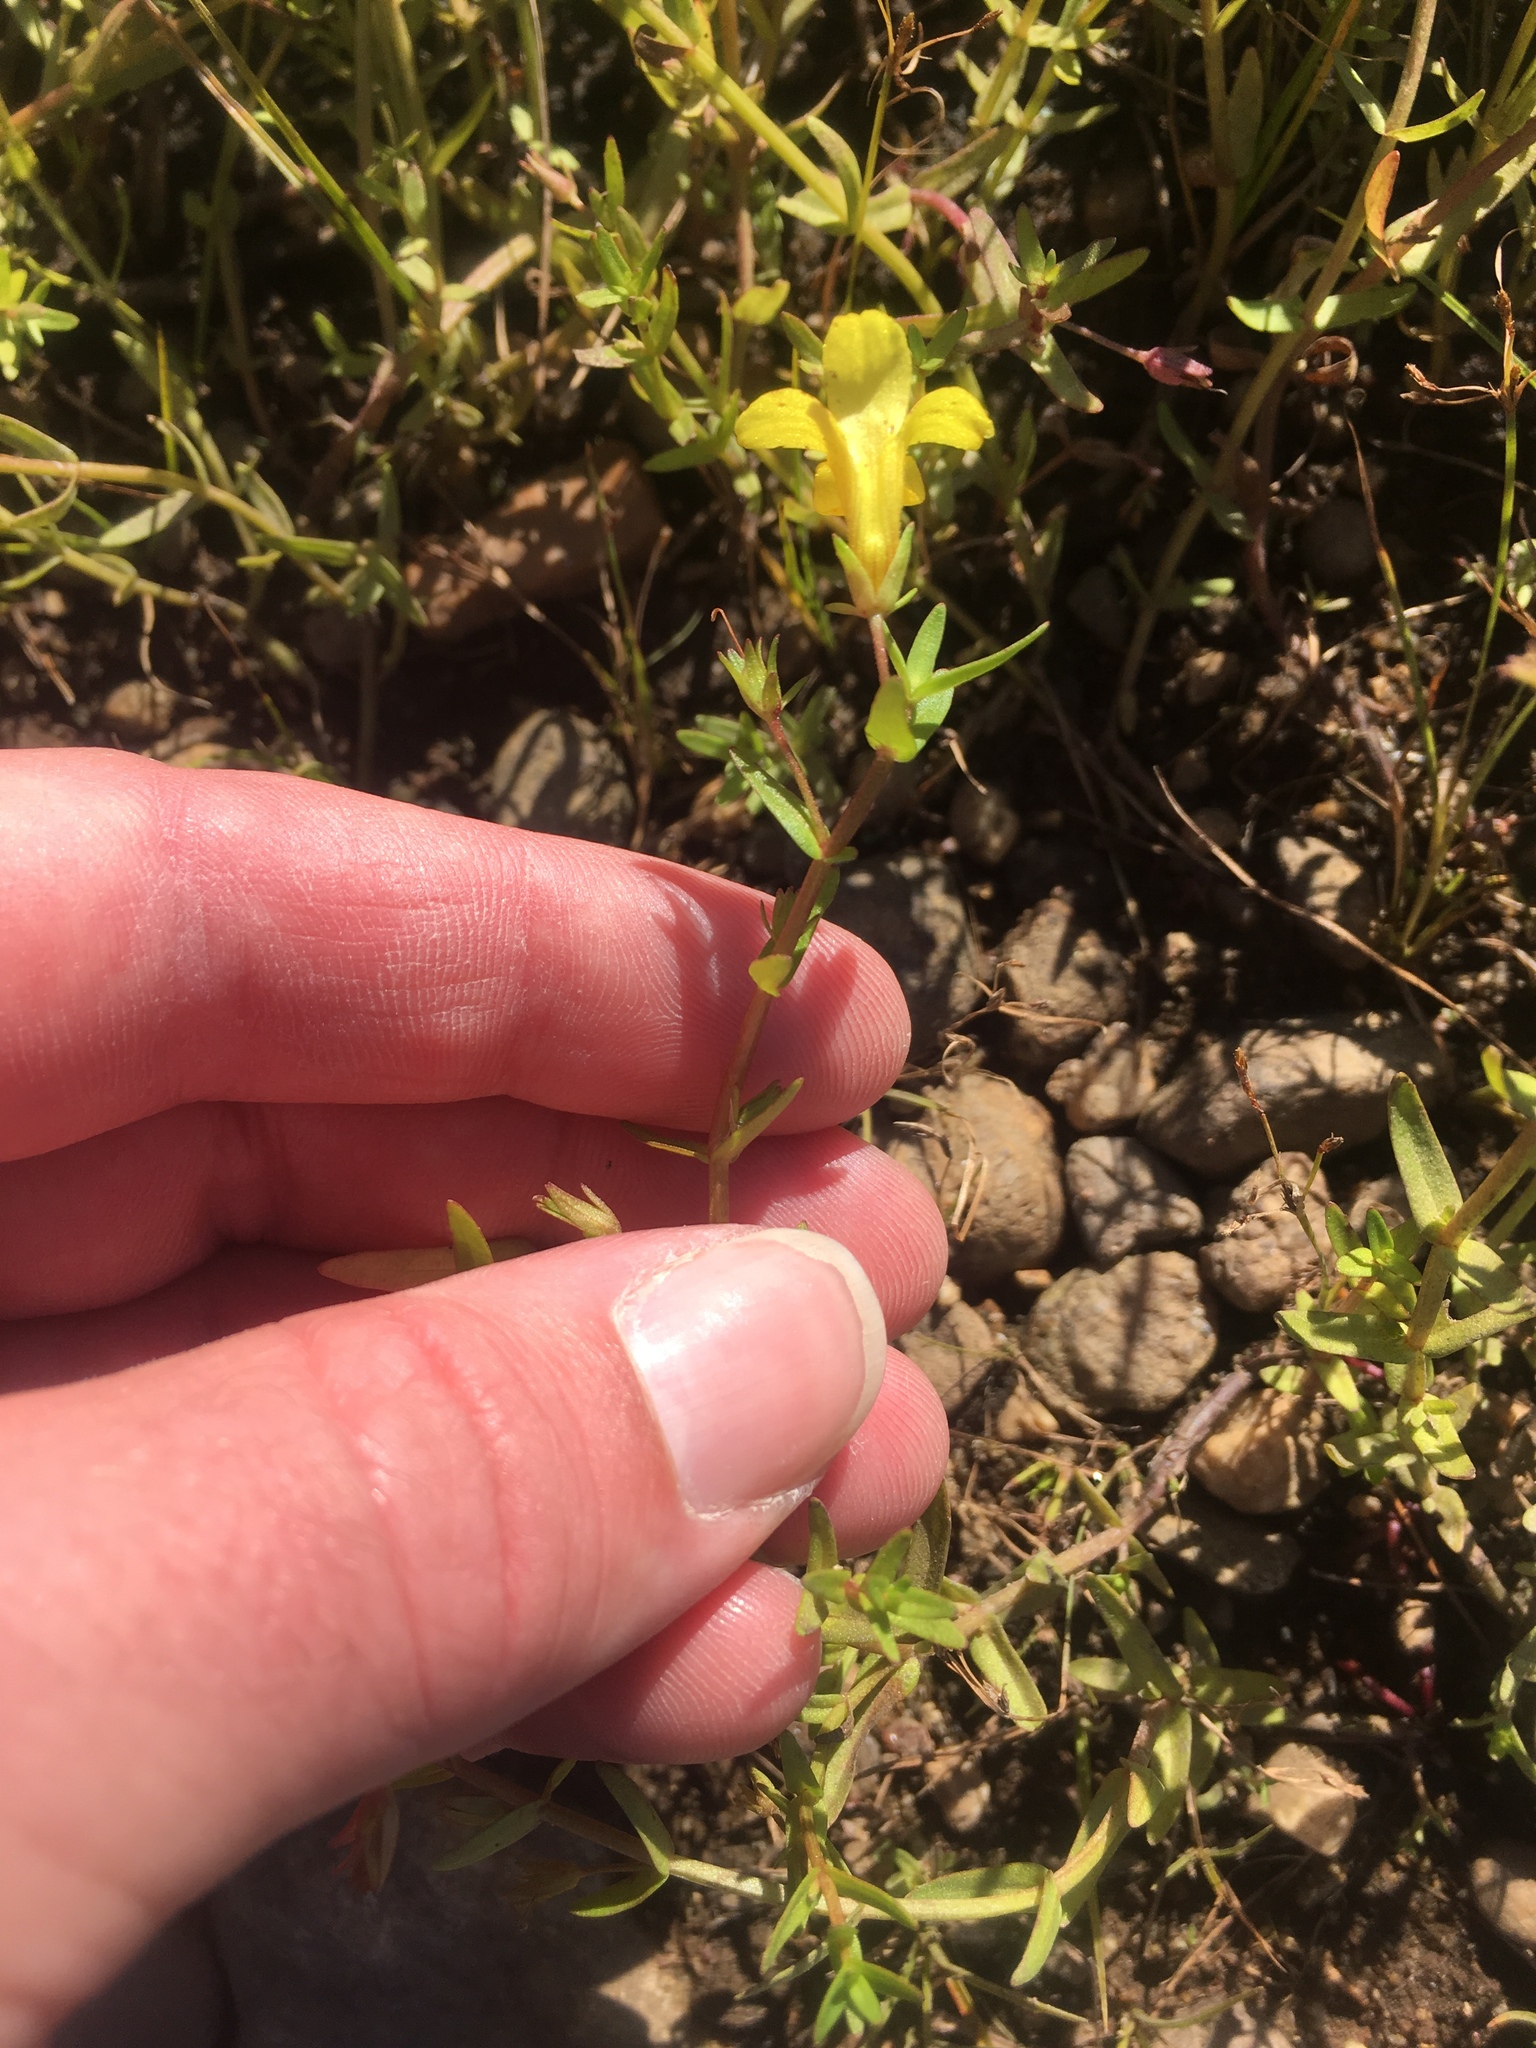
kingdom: Plantae
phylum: Tracheophyta
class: Magnoliopsida
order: Lamiales
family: Plantaginaceae
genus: Gratiola
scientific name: Gratiola lutea
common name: Golden hedge-hyssop
